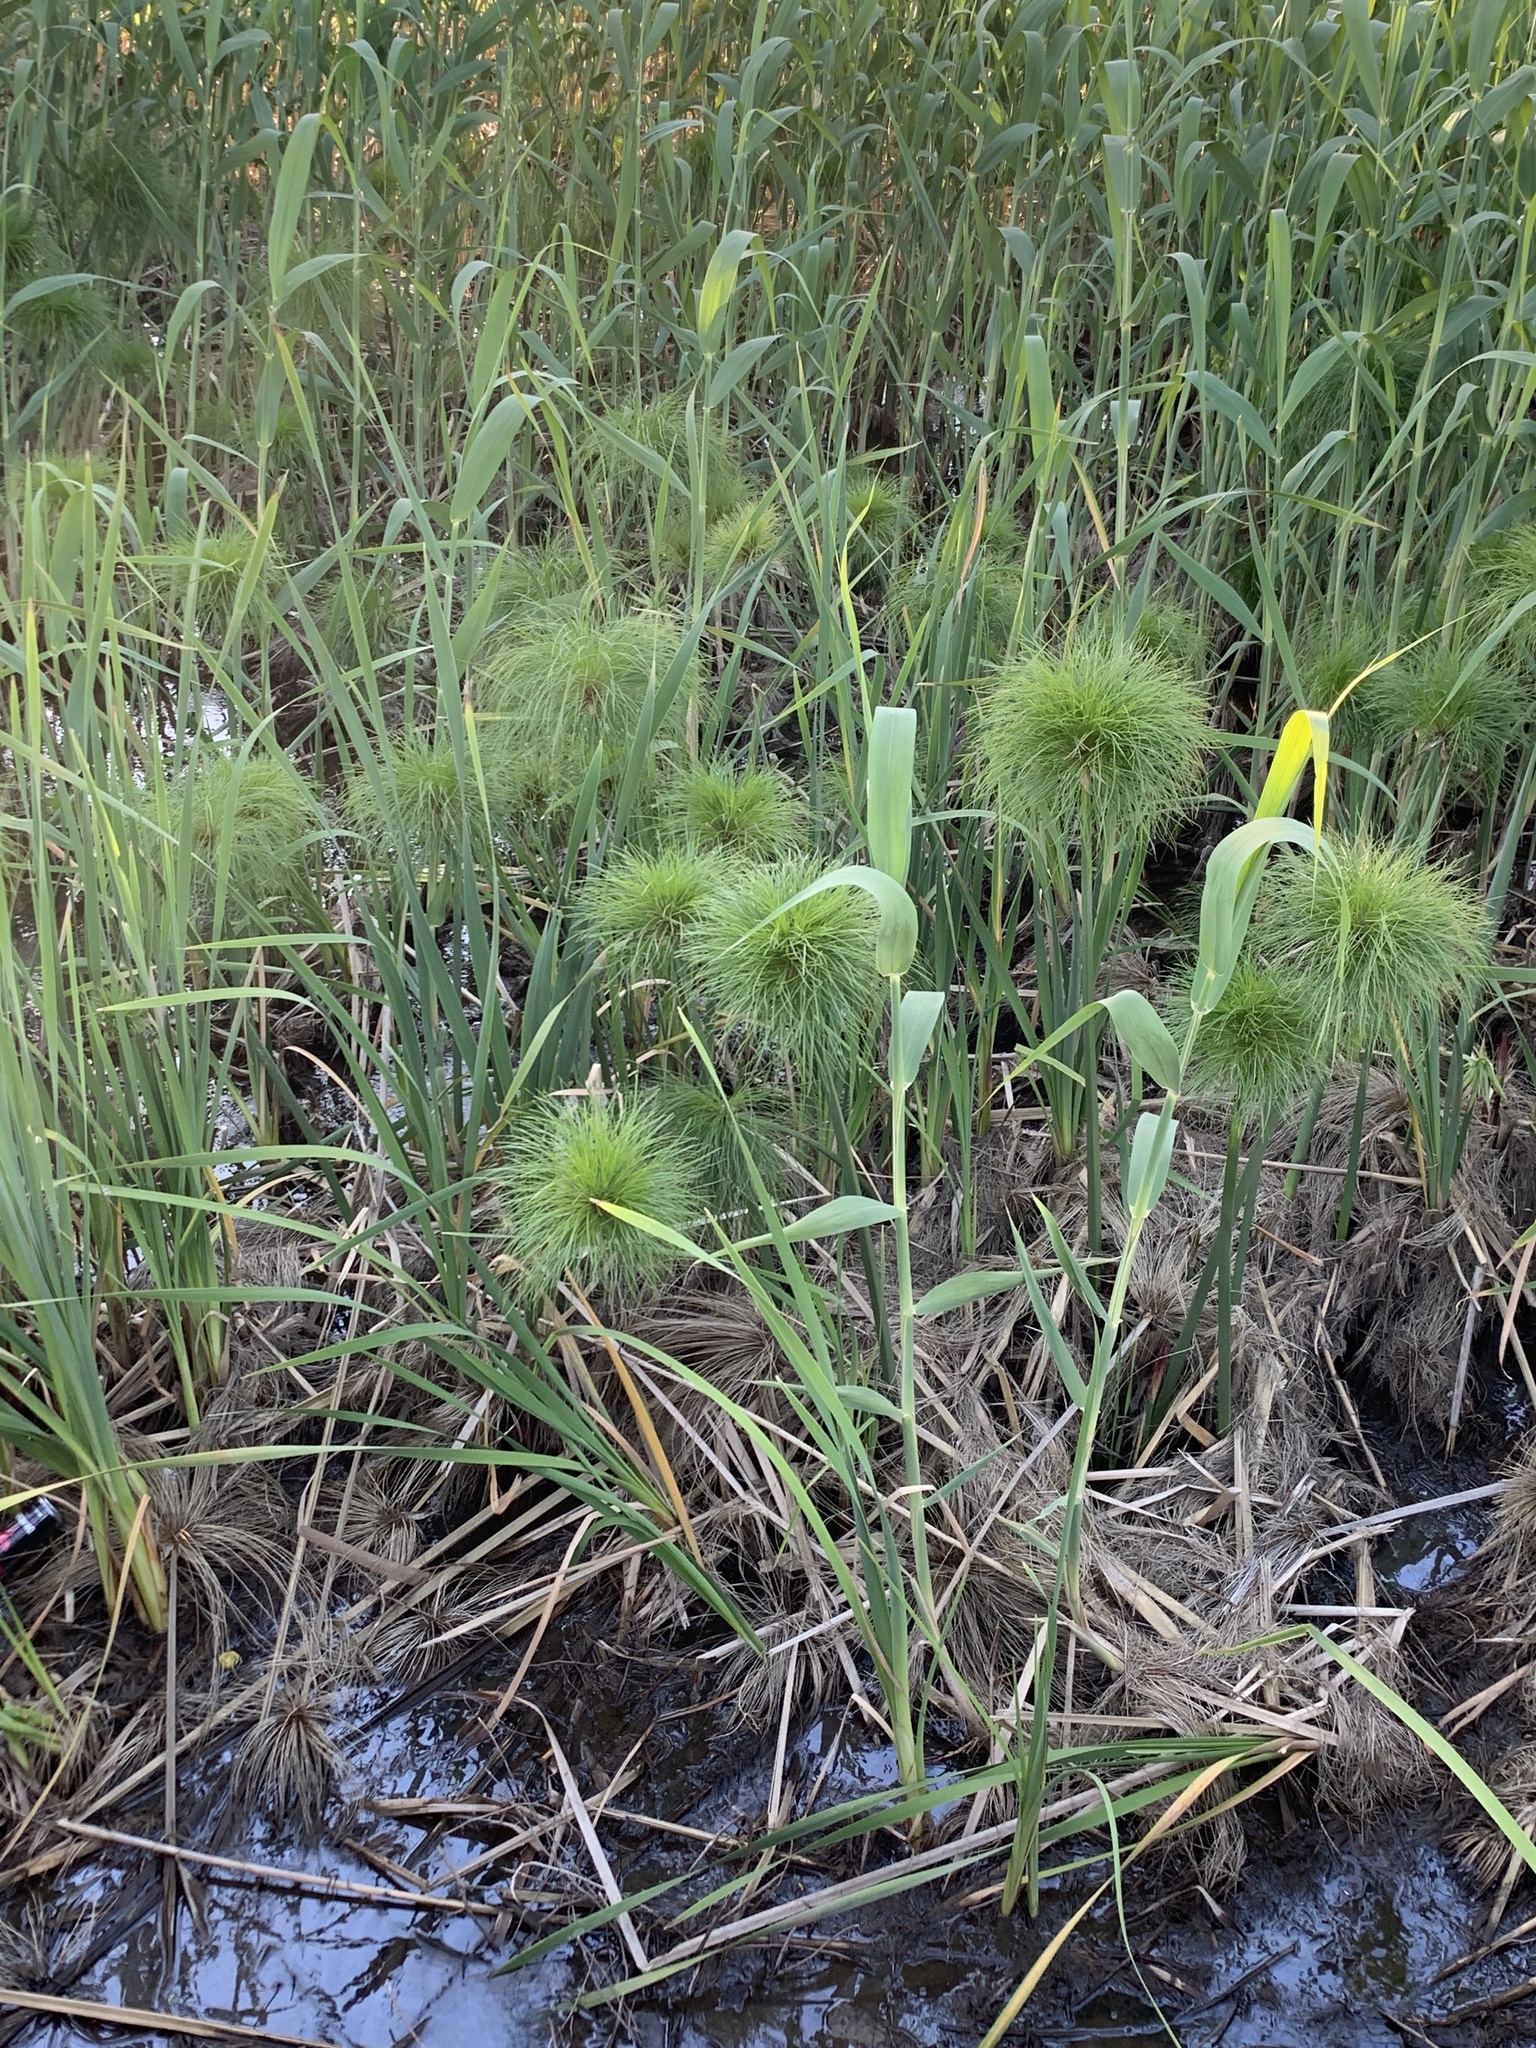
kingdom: Plantae
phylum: Tracheophyta
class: Liliopsida
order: Poales
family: Cyperaceae
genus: Cyperus
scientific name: Cyperus papyrus
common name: Papyrus
